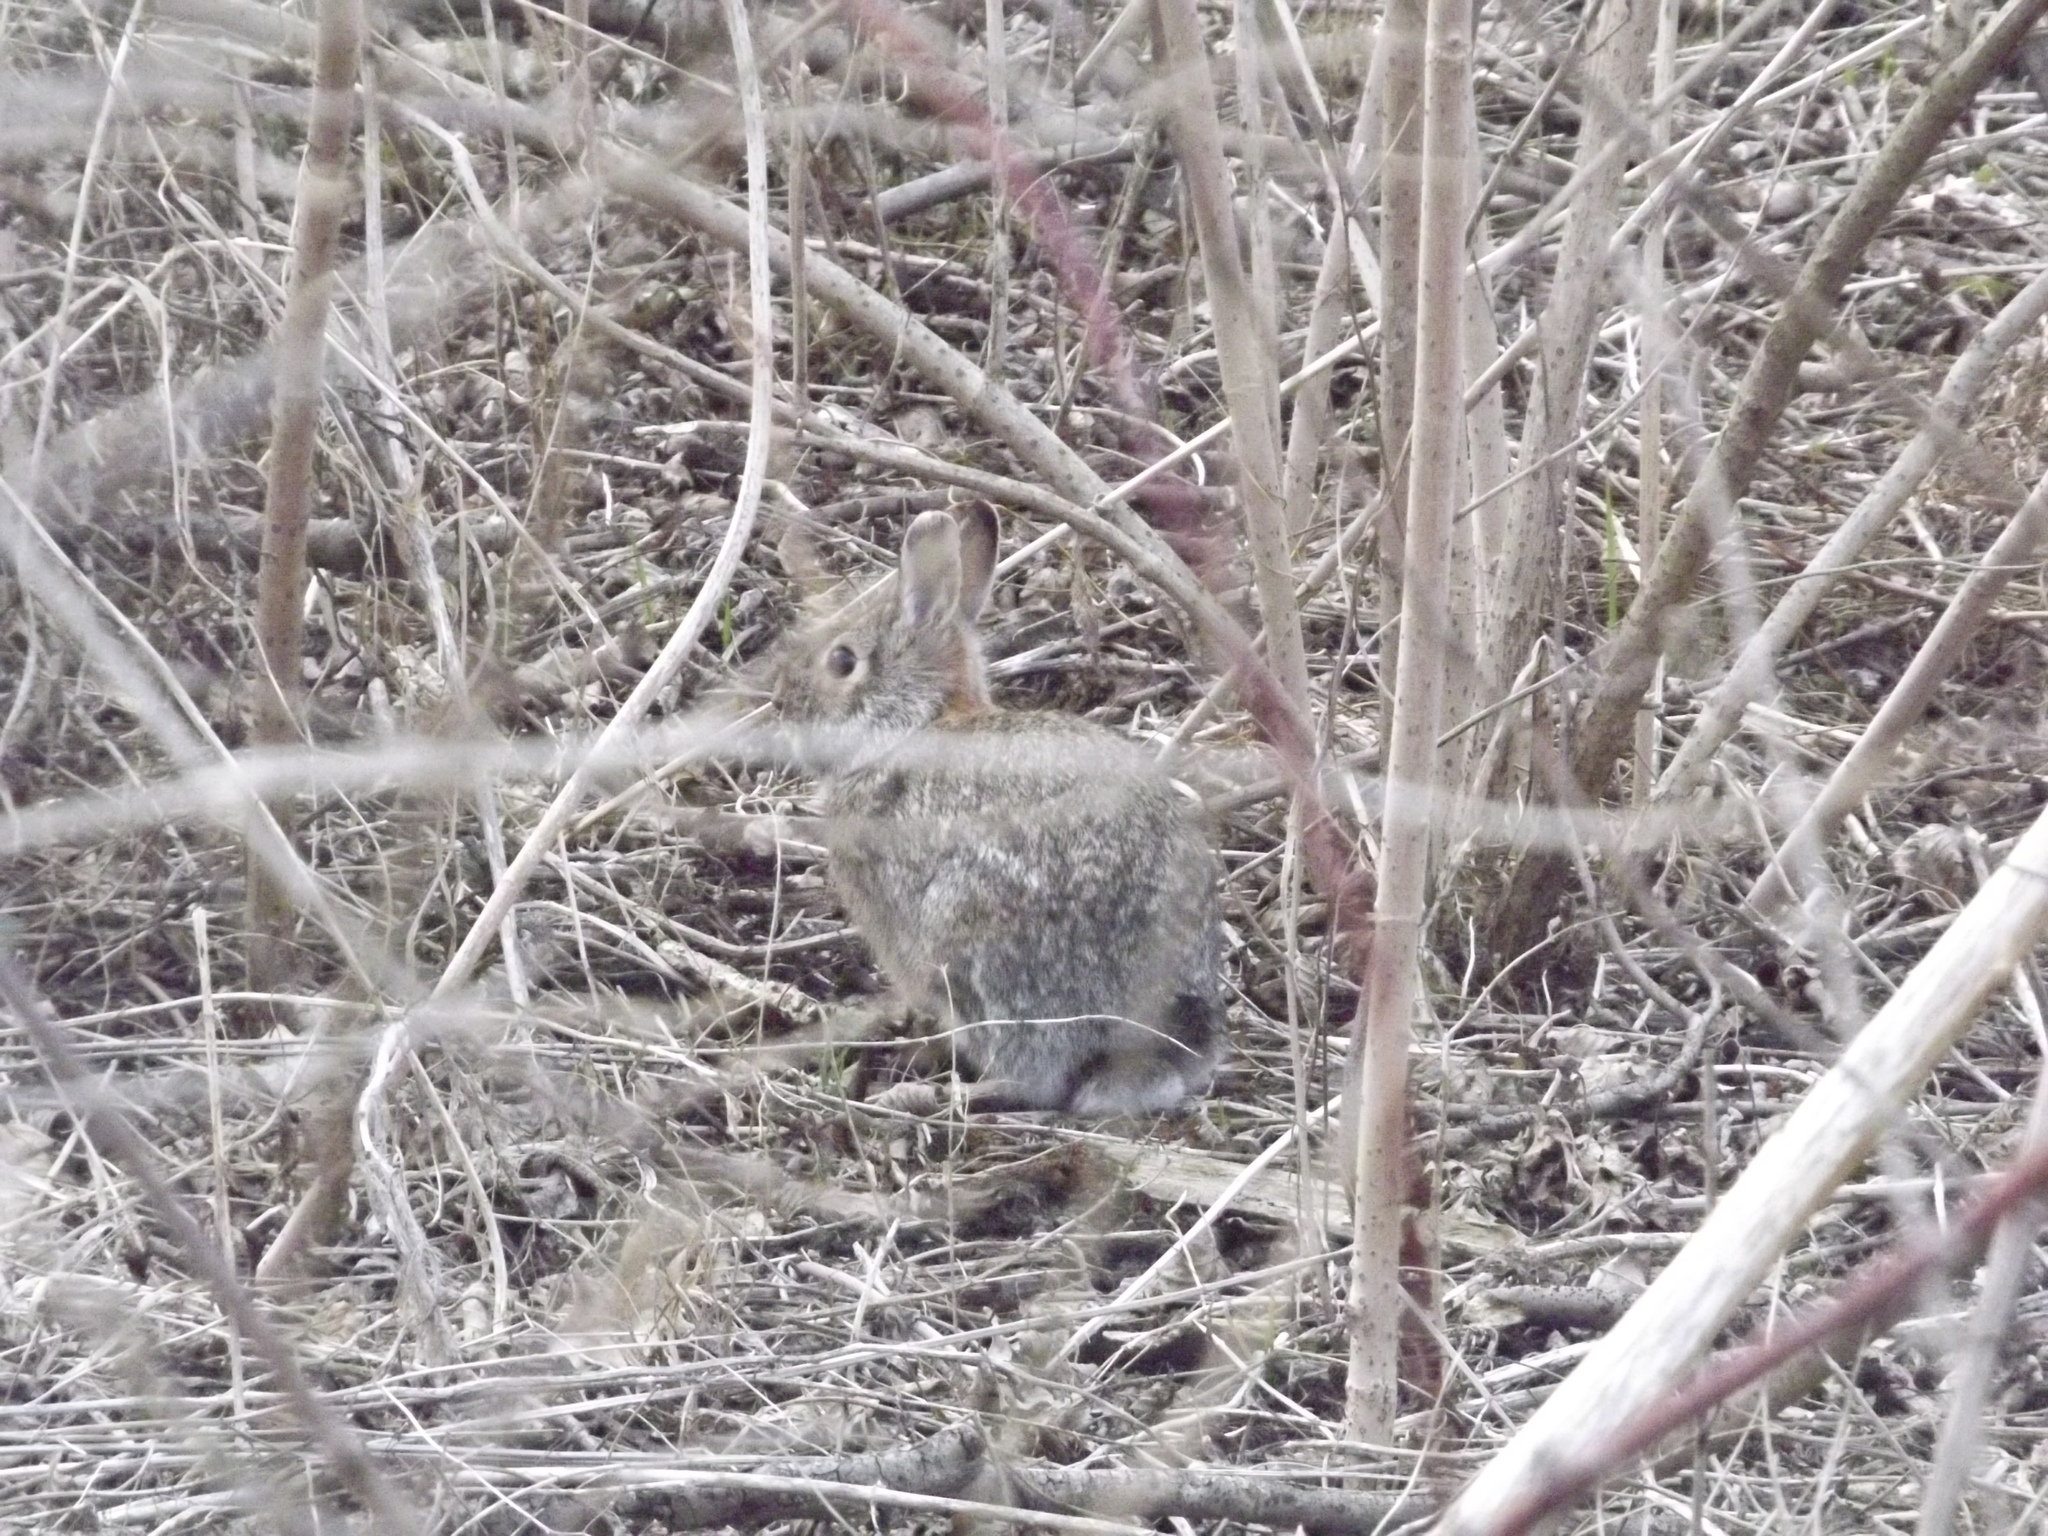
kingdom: Animalia
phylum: Chordata
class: Mammalia
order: Lagomorpha
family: Leporidae
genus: Sylvilagus
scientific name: Sylvilagus floridanus
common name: Eastern cottontail
